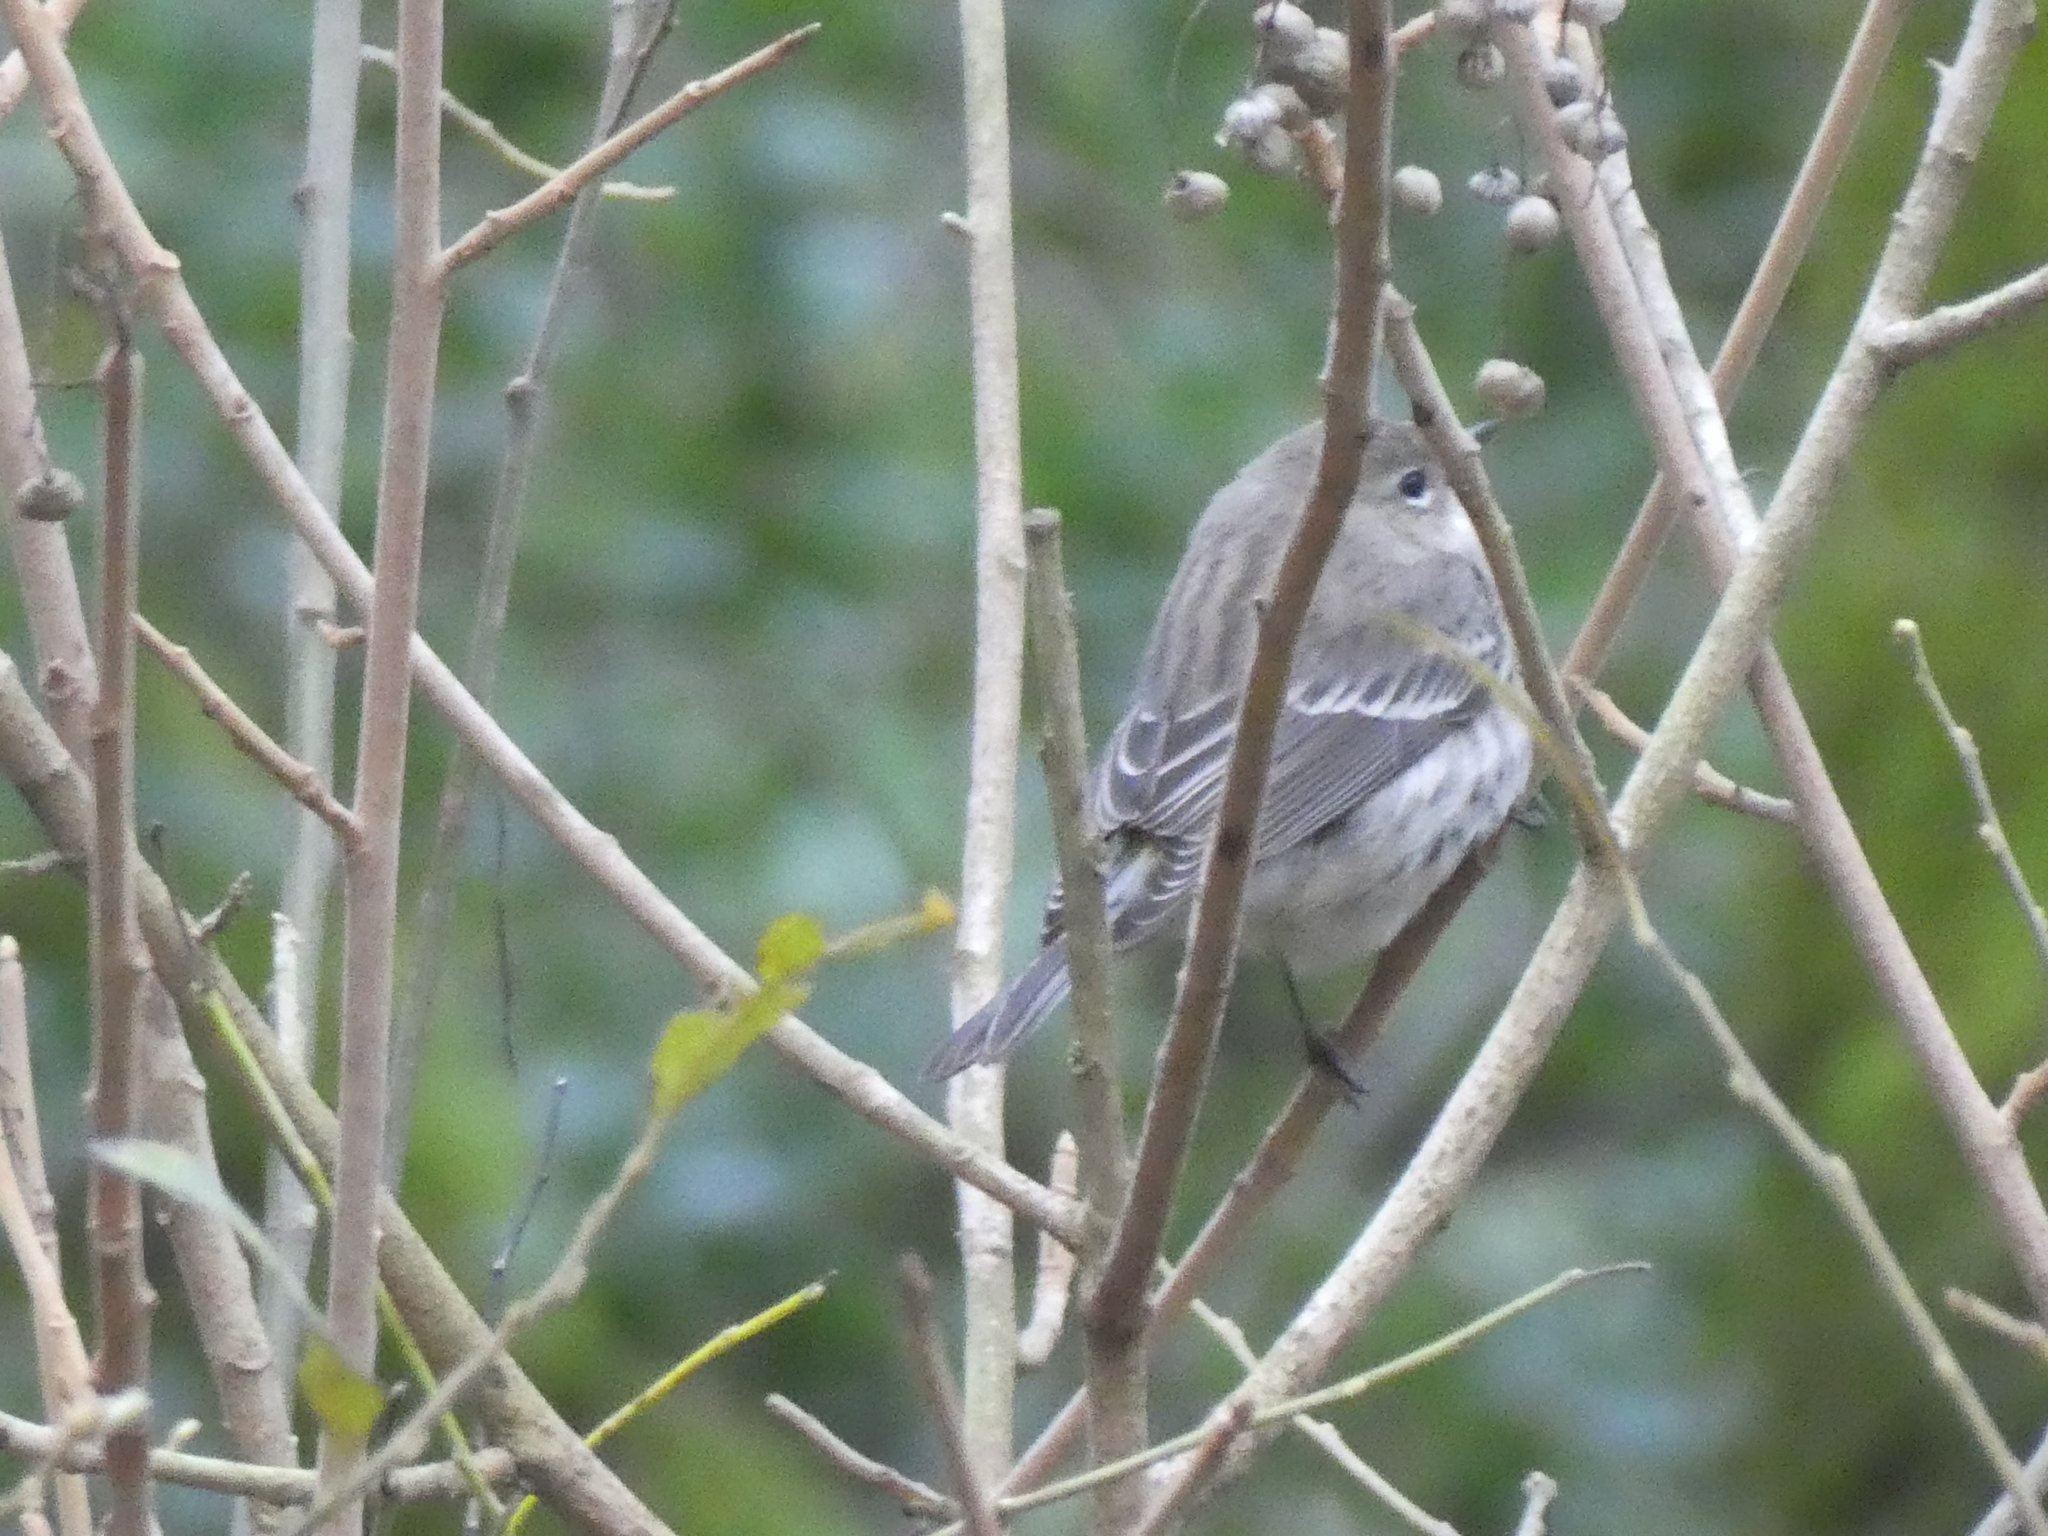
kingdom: Animalia
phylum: Chordata
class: Aves
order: Passeriformes
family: Parulidae
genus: Setophaga
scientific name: Setophaga coronata
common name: Myrtle warbler
